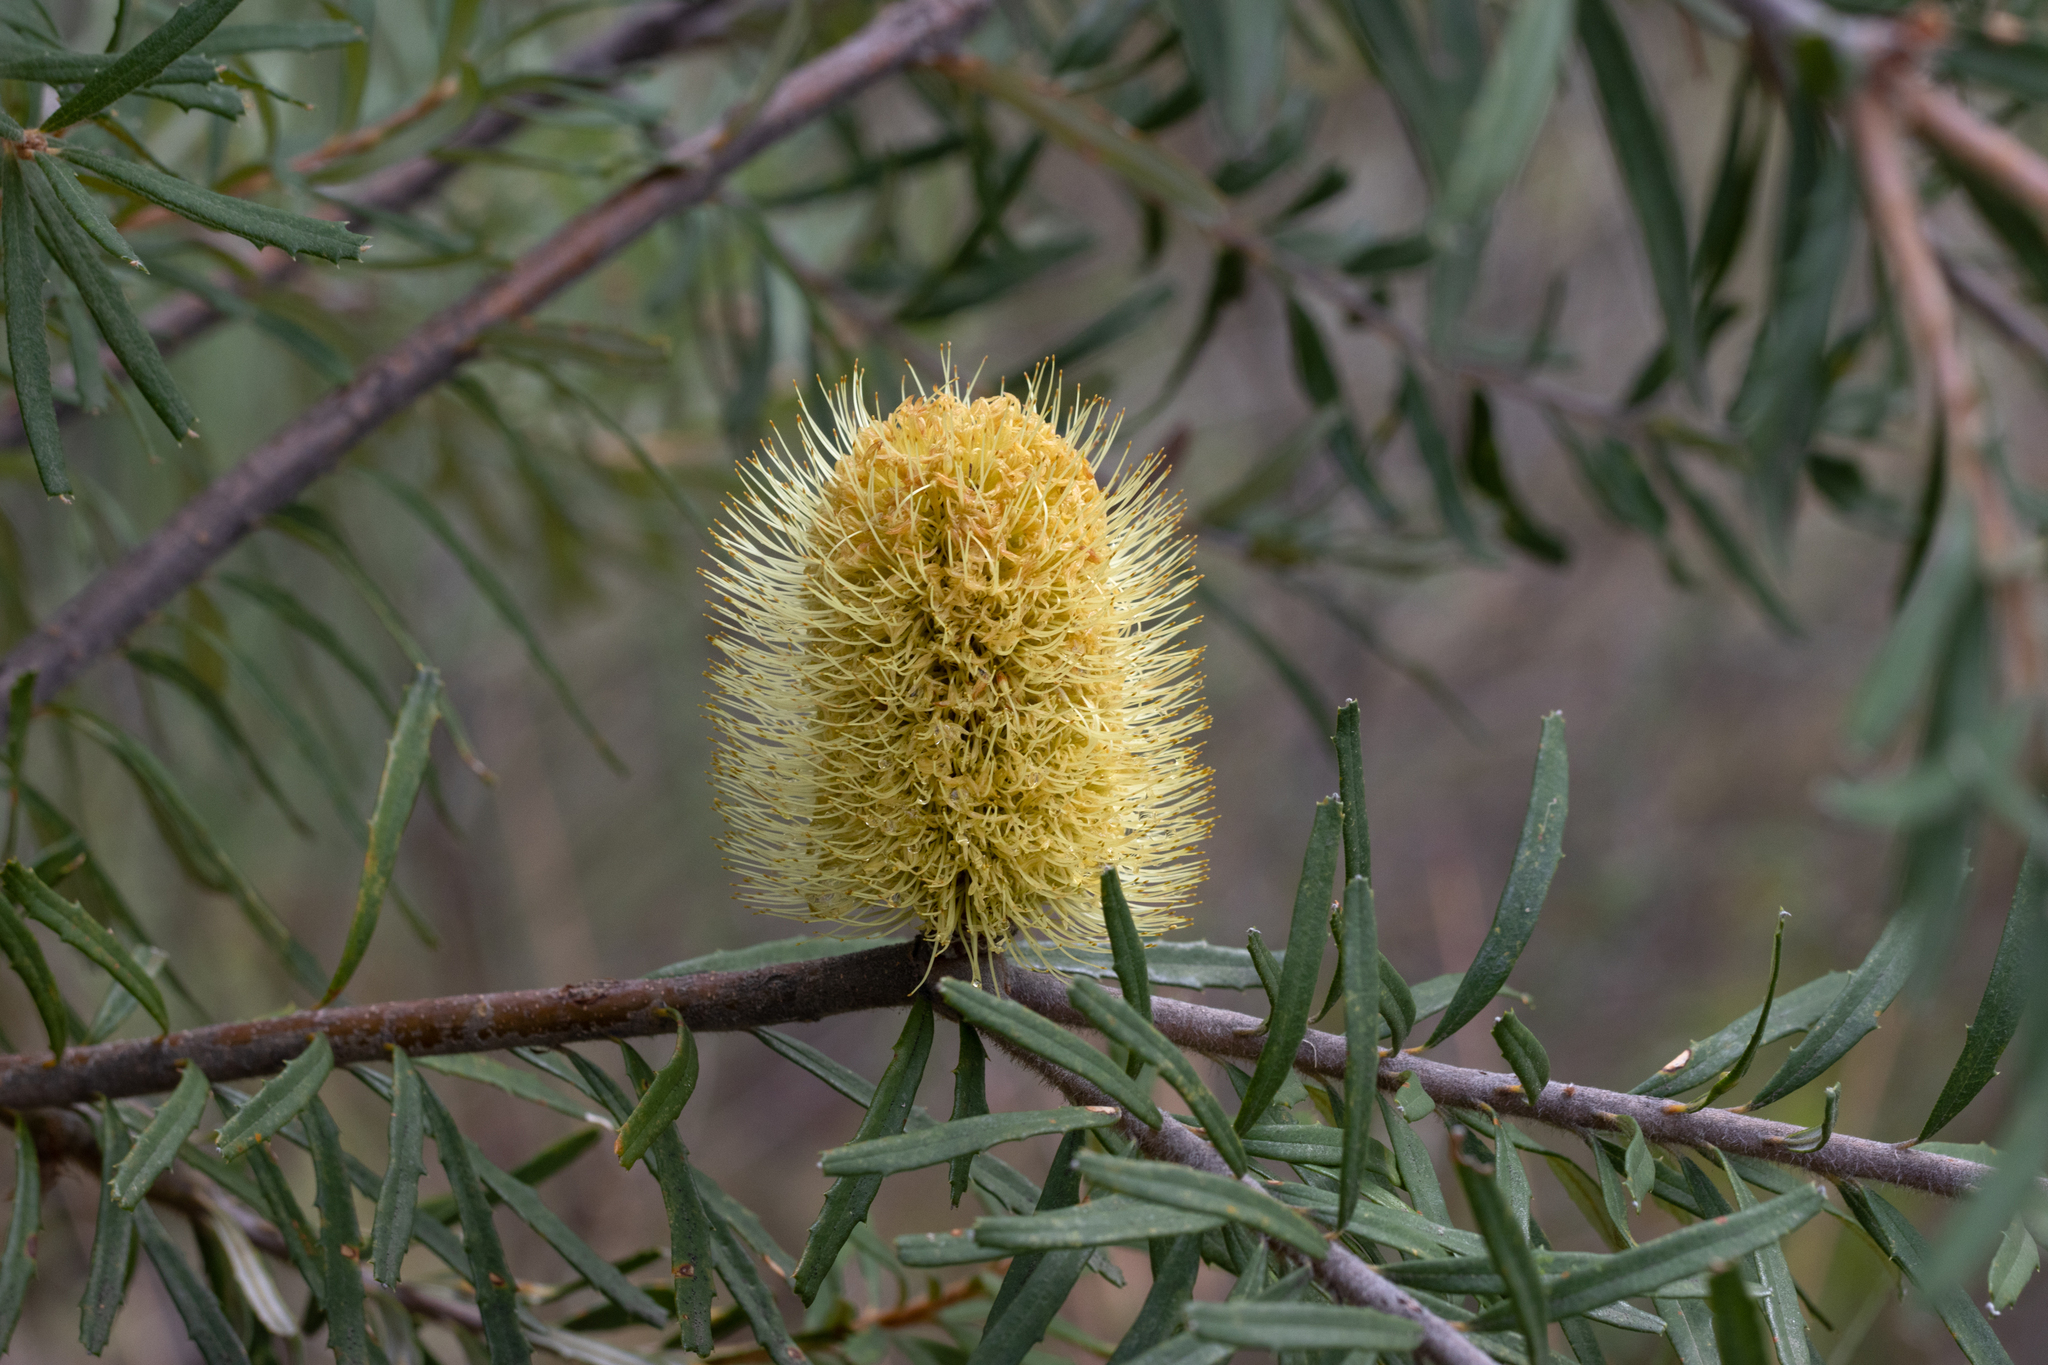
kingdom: Plantae
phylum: Tracheophyta
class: Magnoliopsida
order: Proteales
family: Proteaceae
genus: Banksia
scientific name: Banksia marginata
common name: Silver banksia
